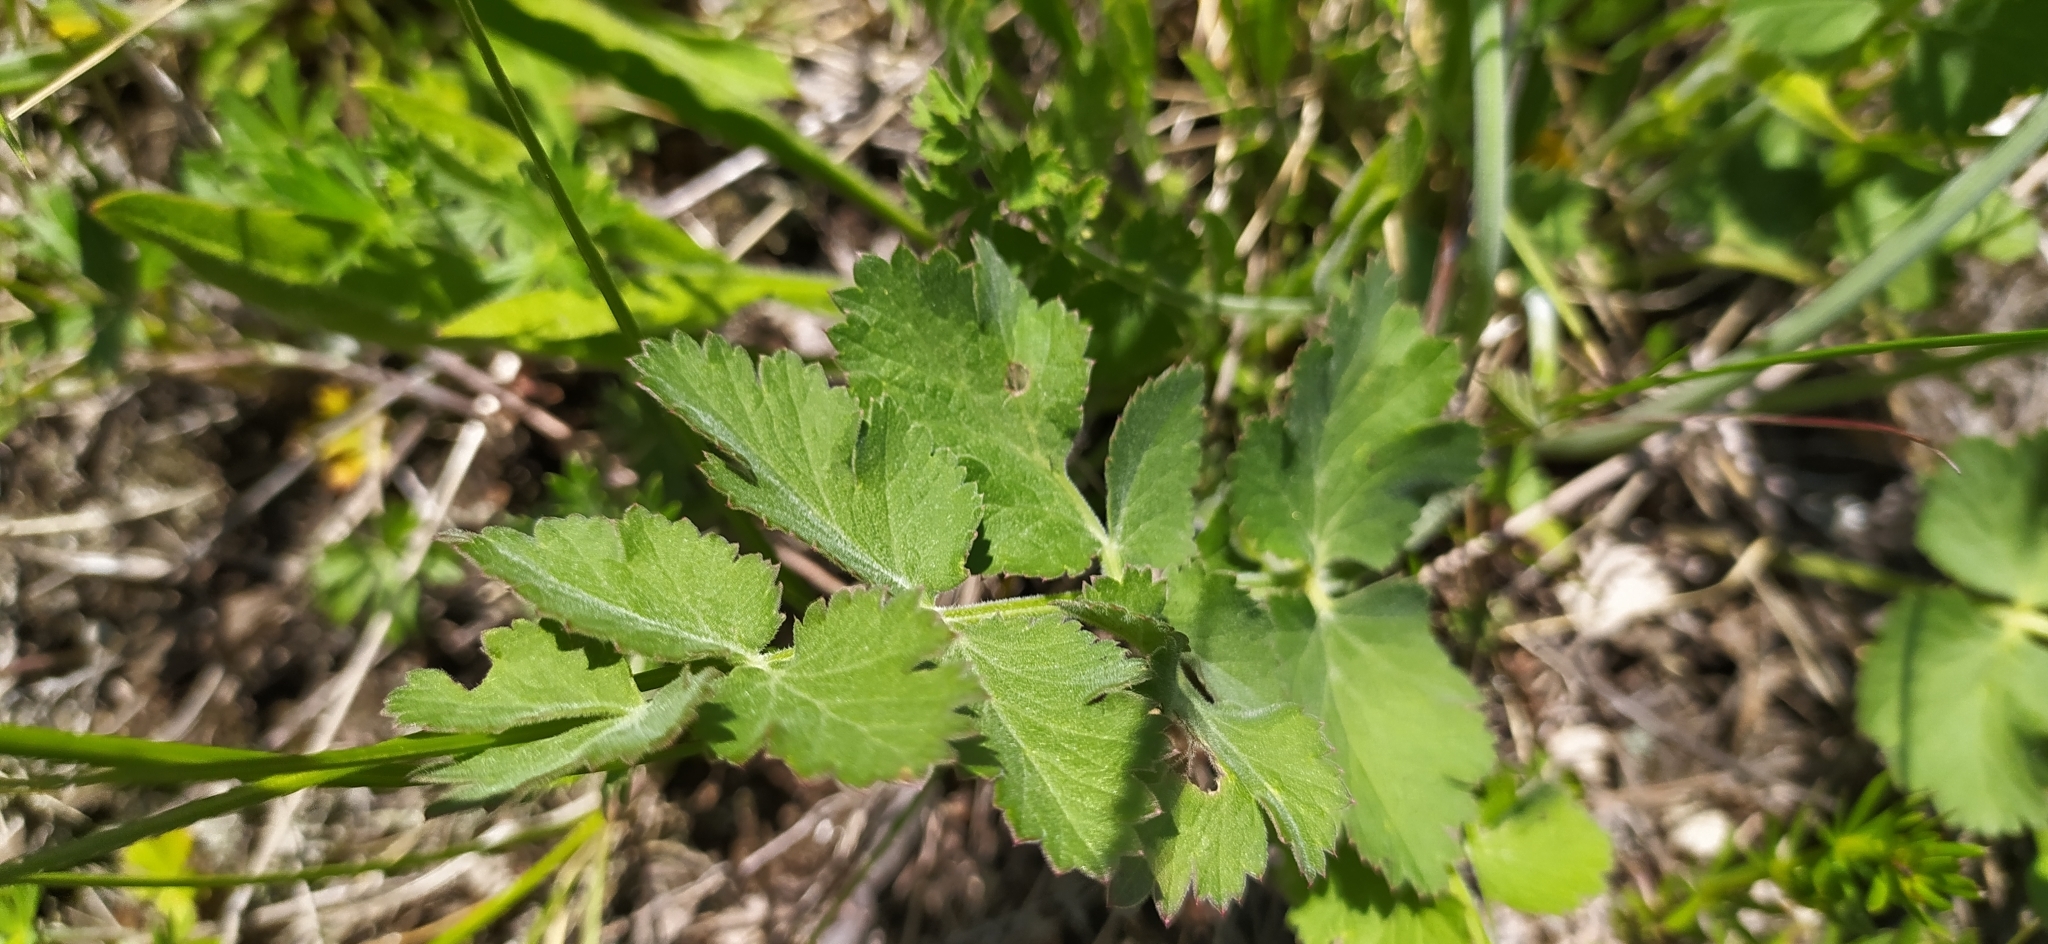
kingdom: Plantae
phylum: Tracheophyta
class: Magnoliopsida
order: Apiales
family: Apiaceae
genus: Pimpinella
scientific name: Pimpinella saxifraga
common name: Burnet-saxifrage
